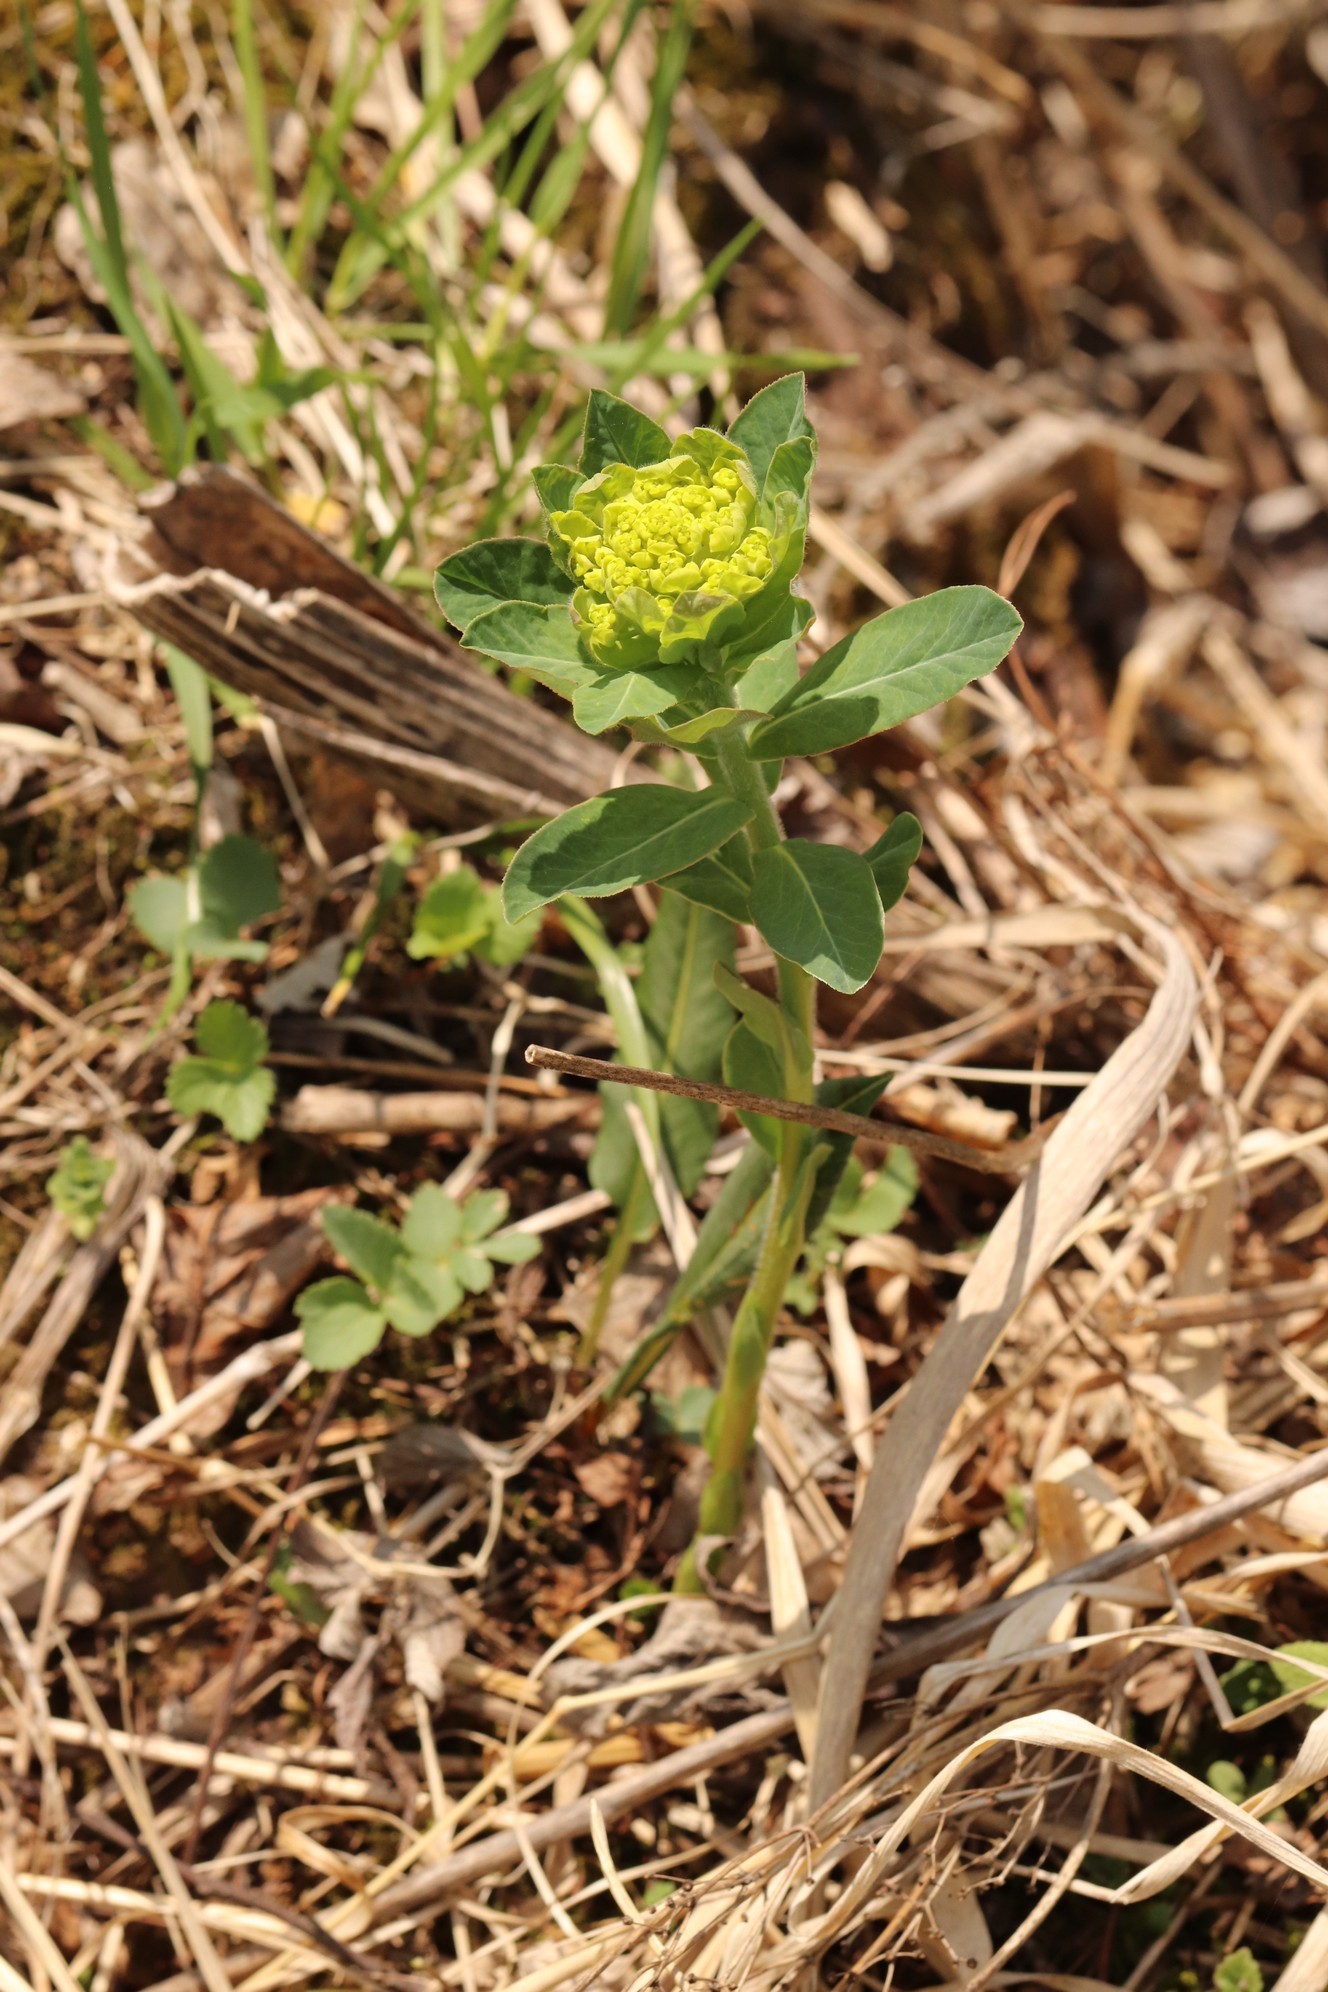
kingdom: Plantae
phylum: Tracheophyta
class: Magnoliopsida
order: Malpighiales
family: Euphorbiaceae
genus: Euphorbia
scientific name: Euphorbia pilosa
